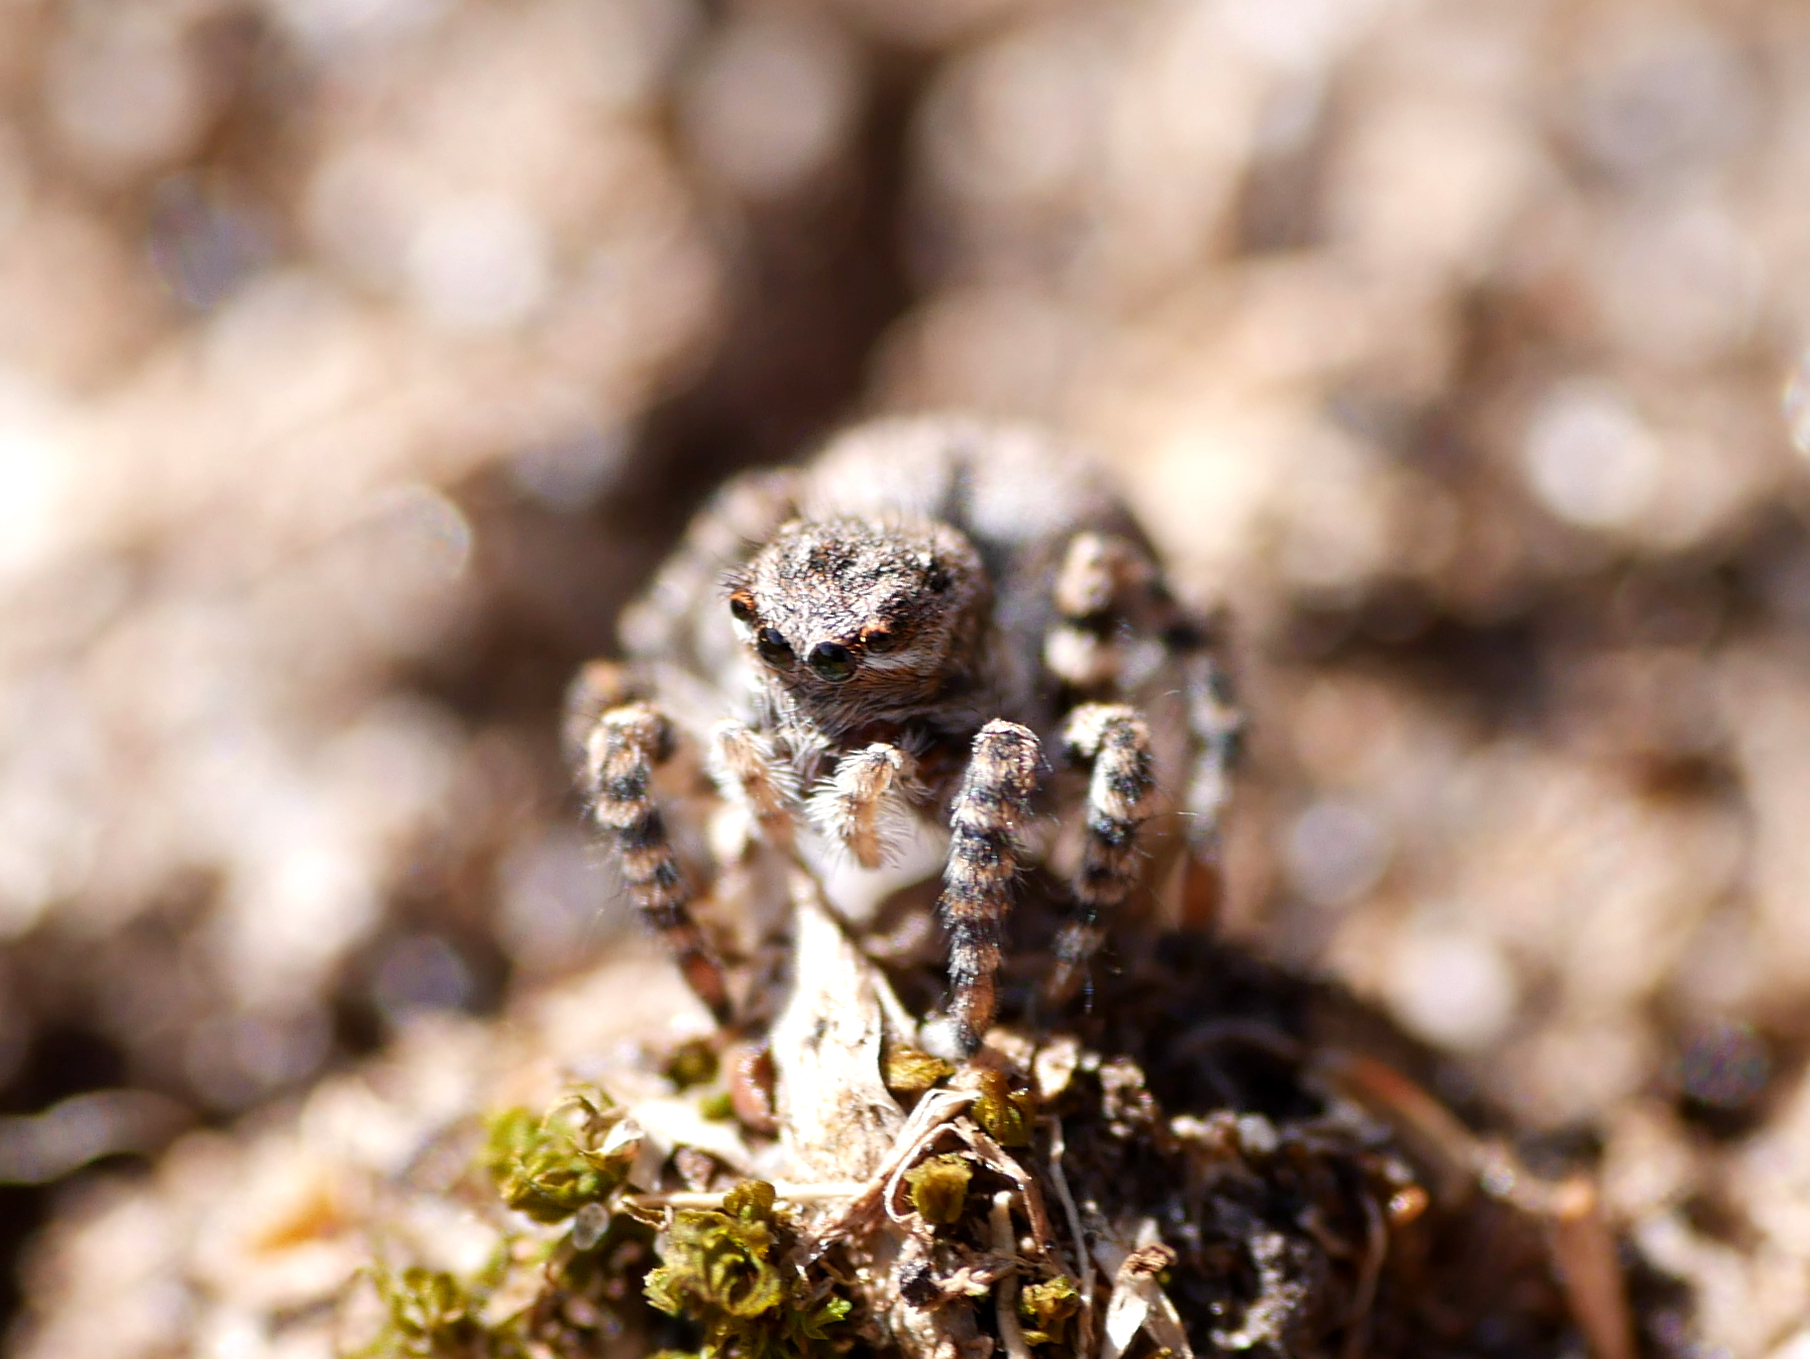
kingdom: Animalia
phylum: Arthropoda
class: Arachnida
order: Araneae
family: Salticidae
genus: Aelurillus
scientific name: Aelurillus v-insignitus
